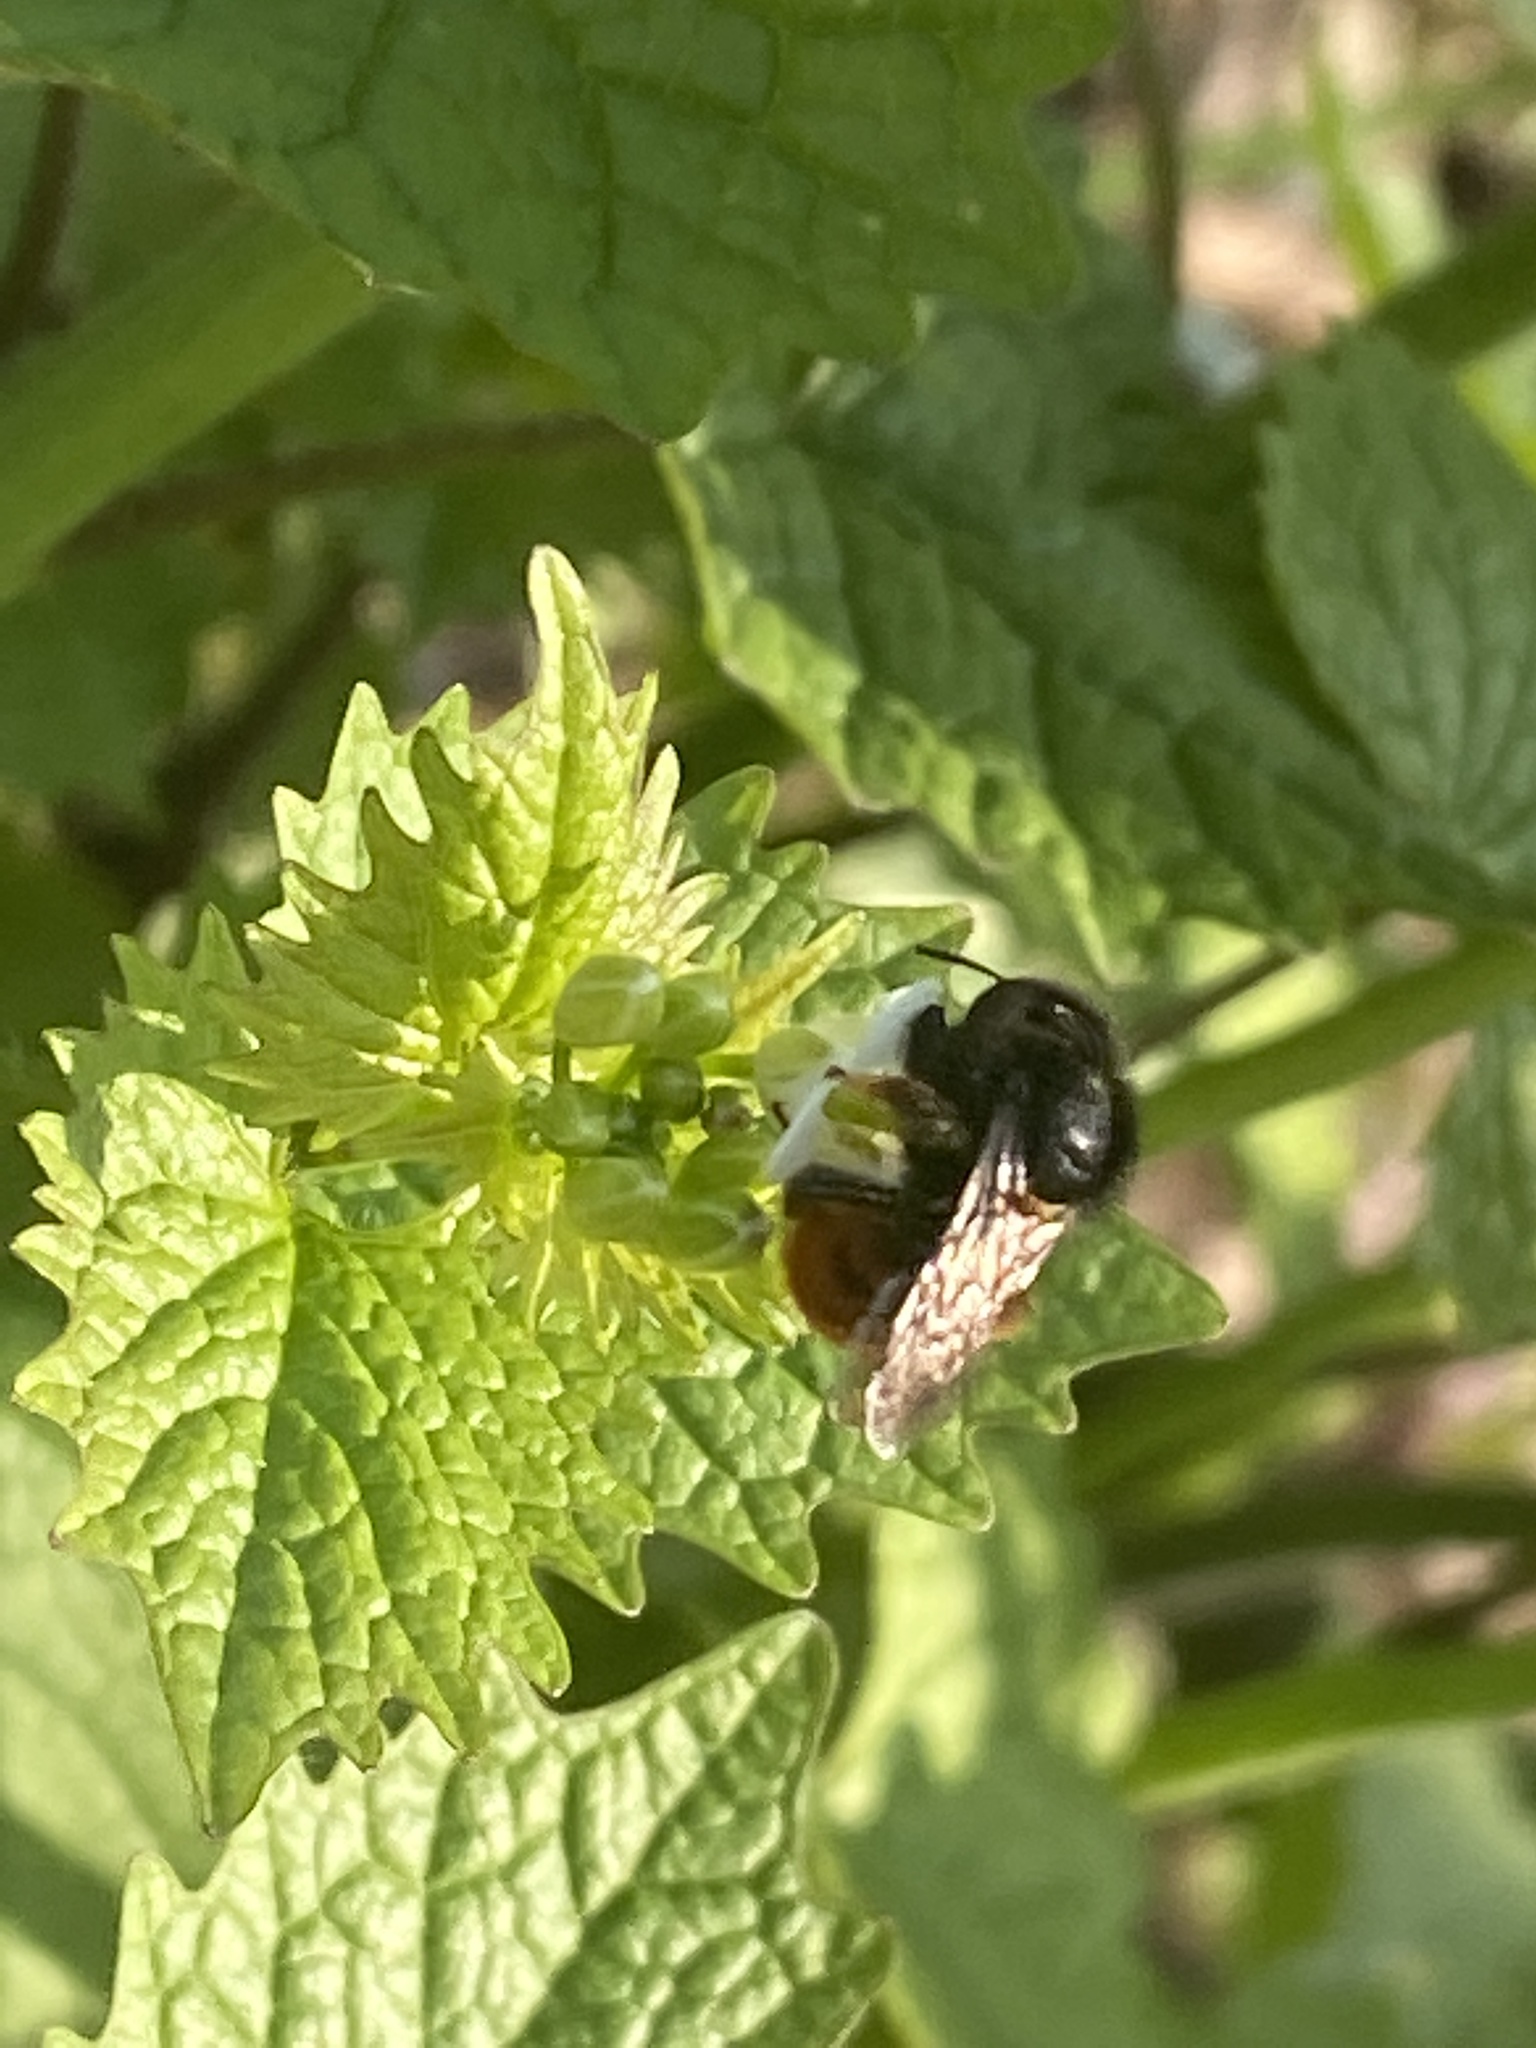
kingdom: Animalia
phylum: Arthropoda
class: Insecta
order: Hymenoptera
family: Megachilidae
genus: Osmia
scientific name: Osmia cornuta
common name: Mason bee
